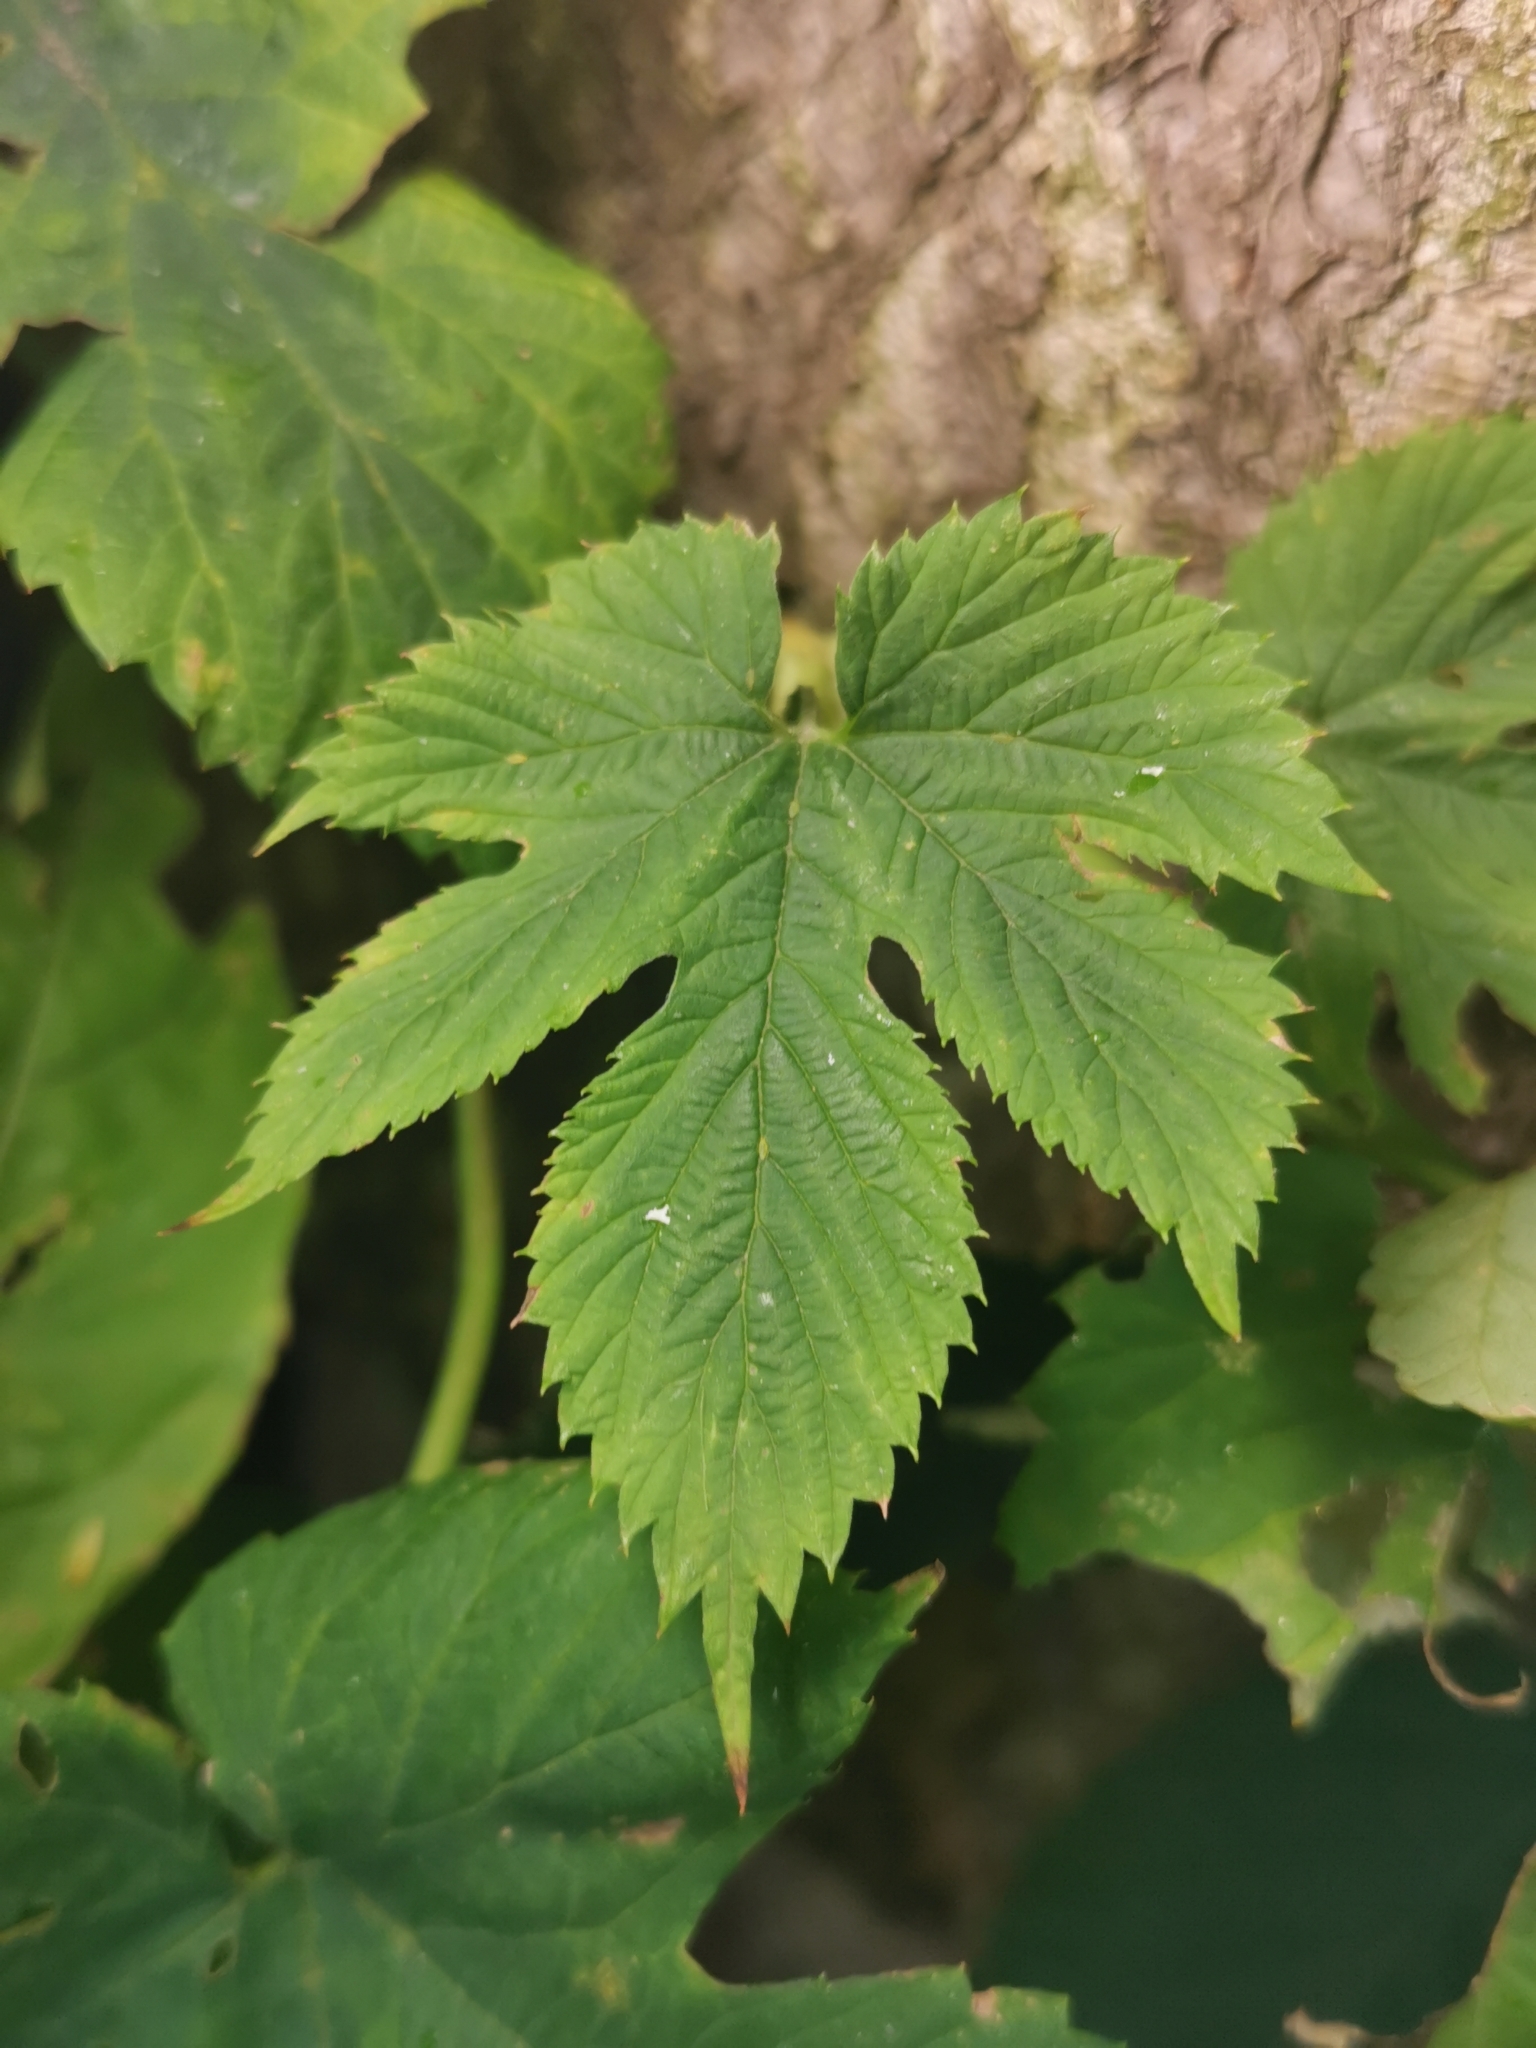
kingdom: Plantae
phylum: Tracheophyta
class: Magnoliopsida
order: Rosales
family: Cannabaceae
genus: Humulus
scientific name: Humulus lupulus
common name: Hop
